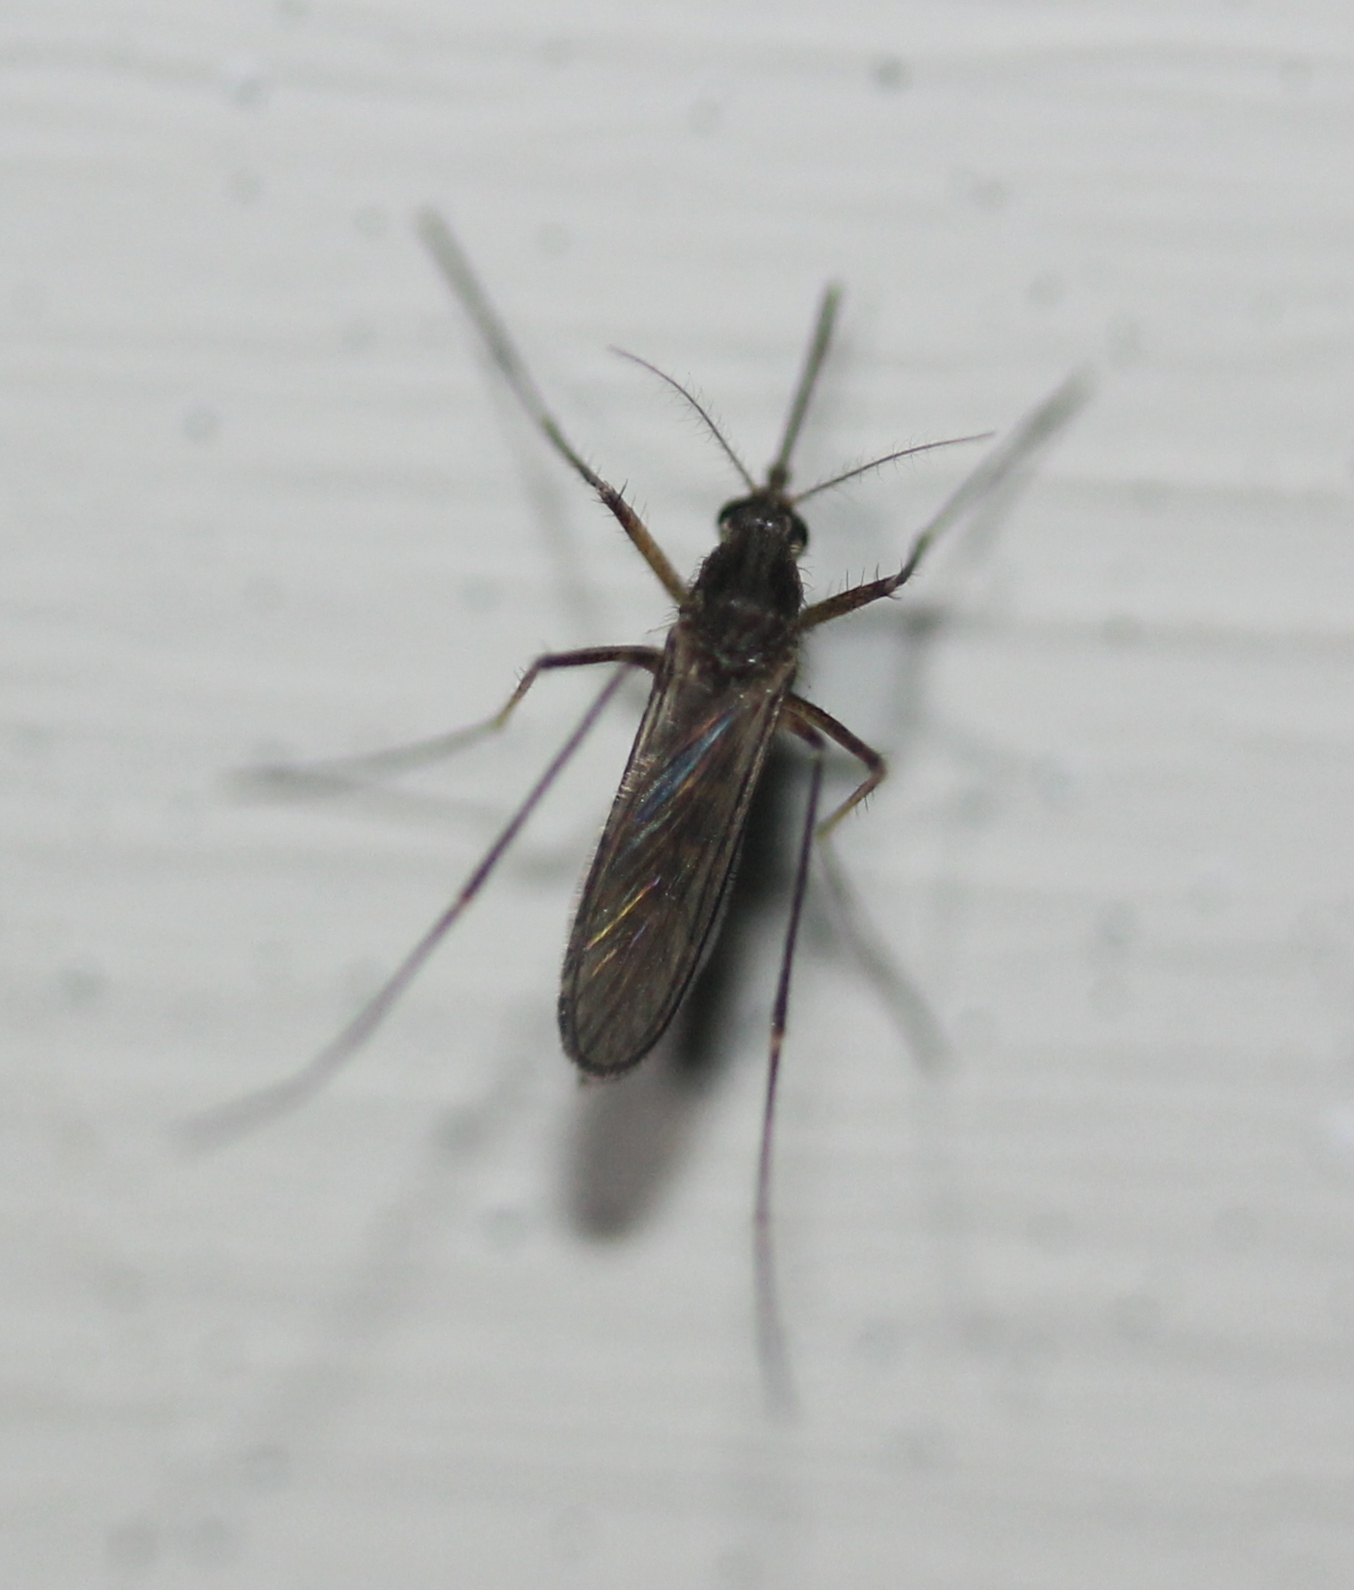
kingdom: Animalia
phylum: Arthropoda
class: Insecta
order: Diptera
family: Culicidae
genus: Aedes
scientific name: Aedes vexans
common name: Inland floodwater mosquito
